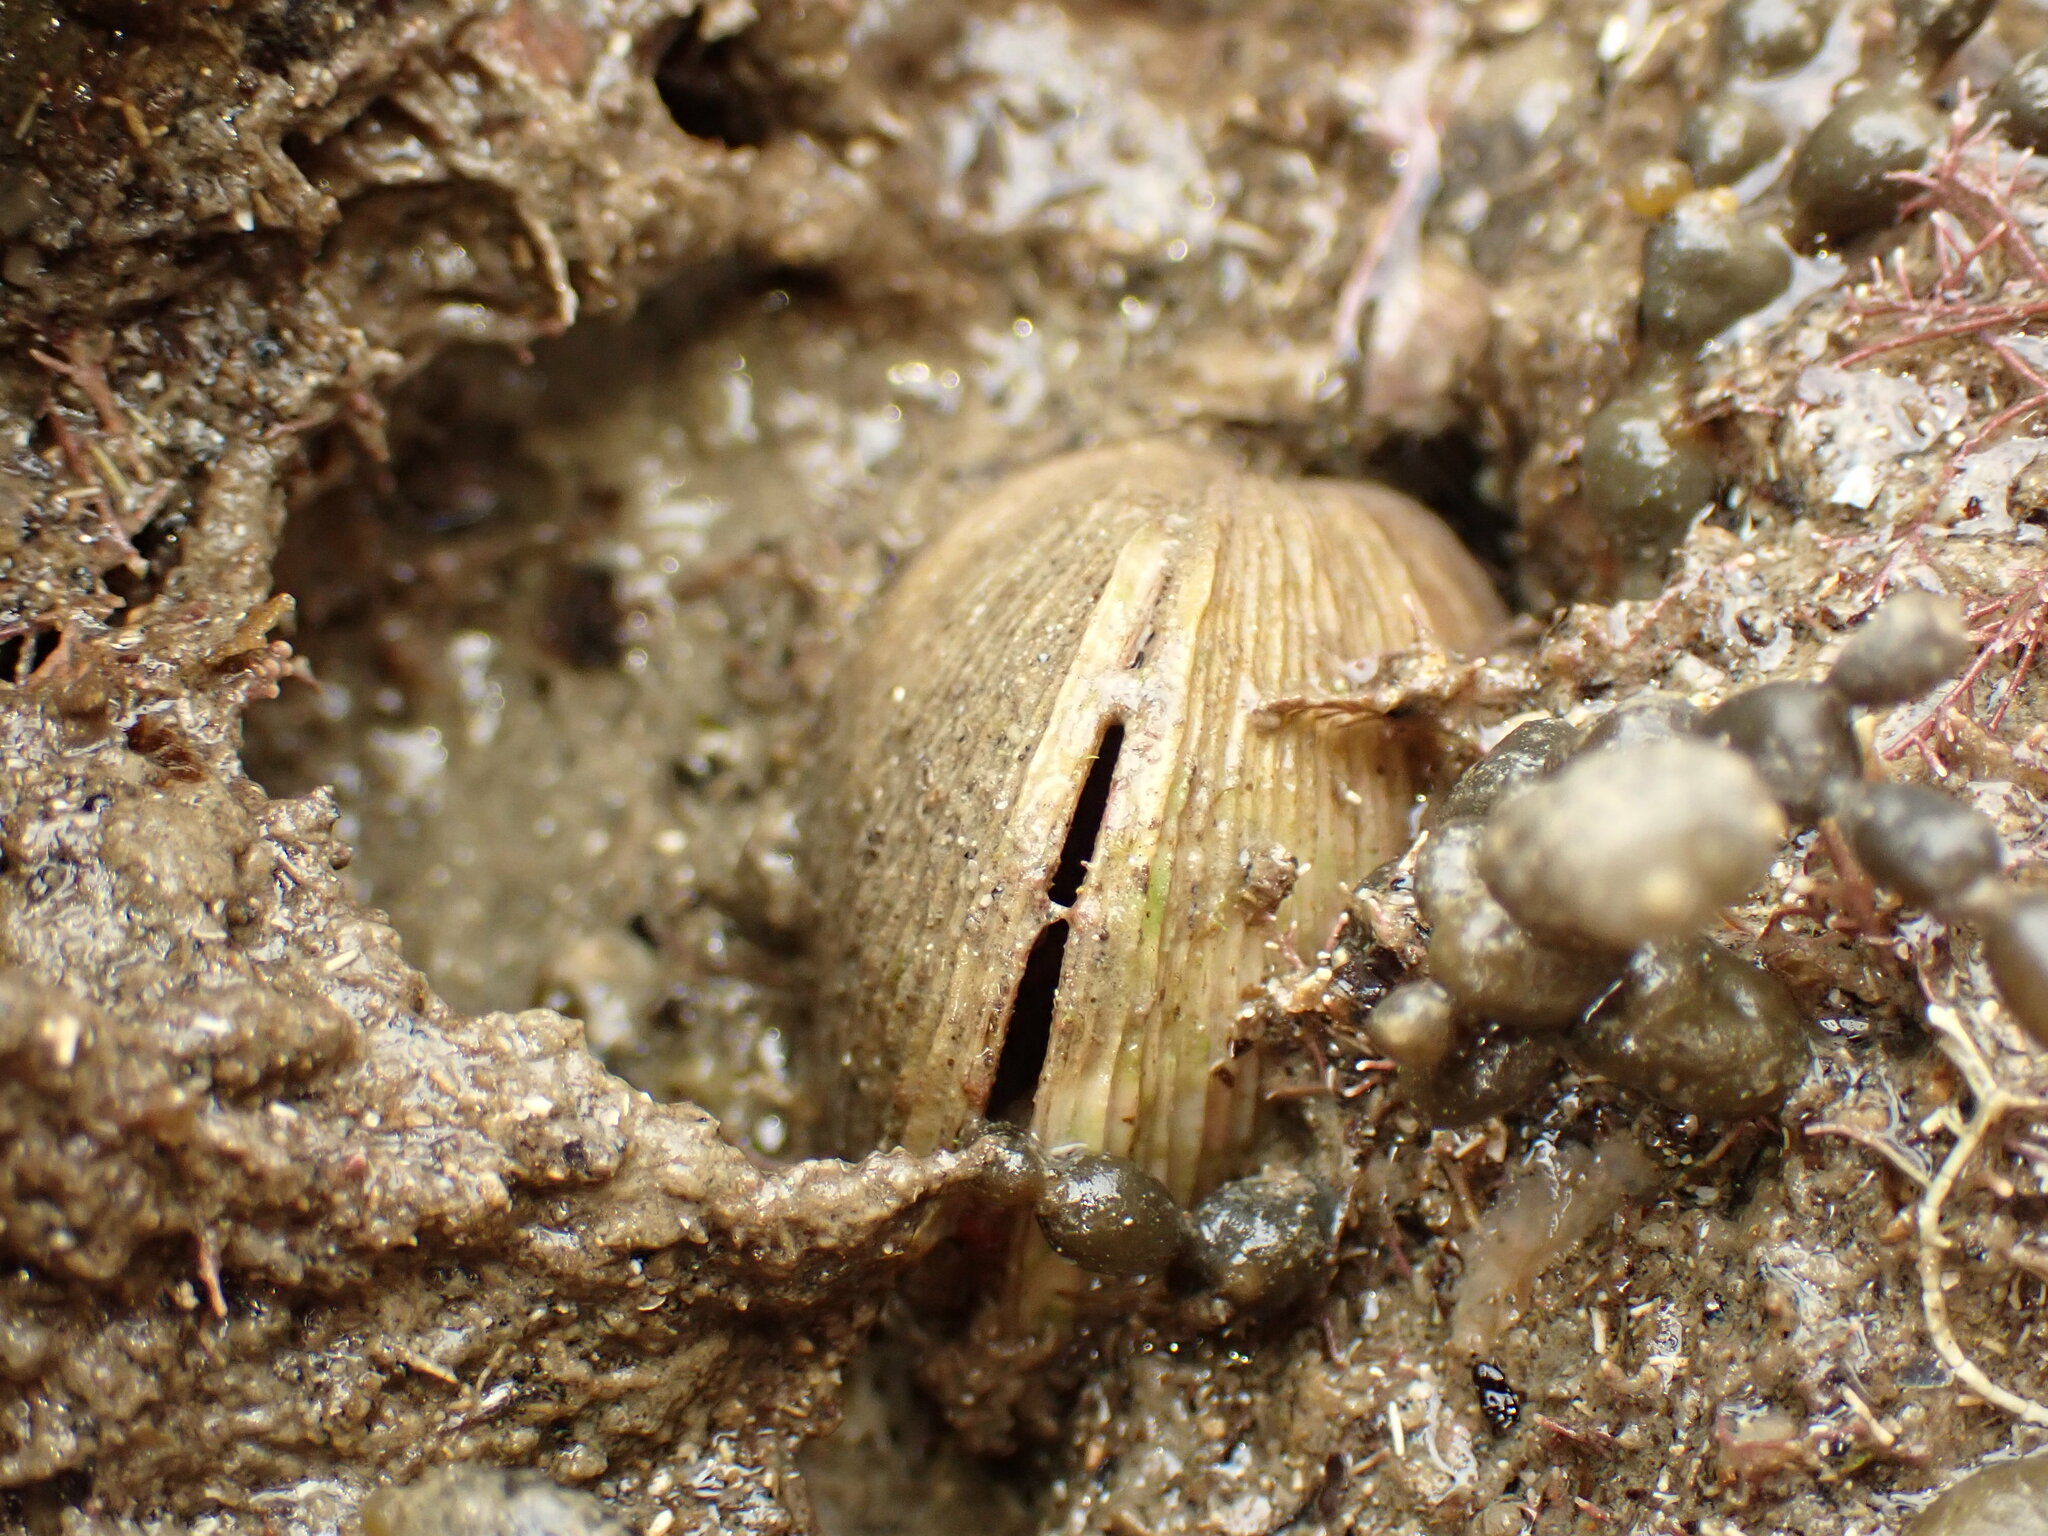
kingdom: Animalia
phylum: Mollusca
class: Bivalvia
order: Venerida
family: Veneridae
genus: Dosina
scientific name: Dosina mactracea
